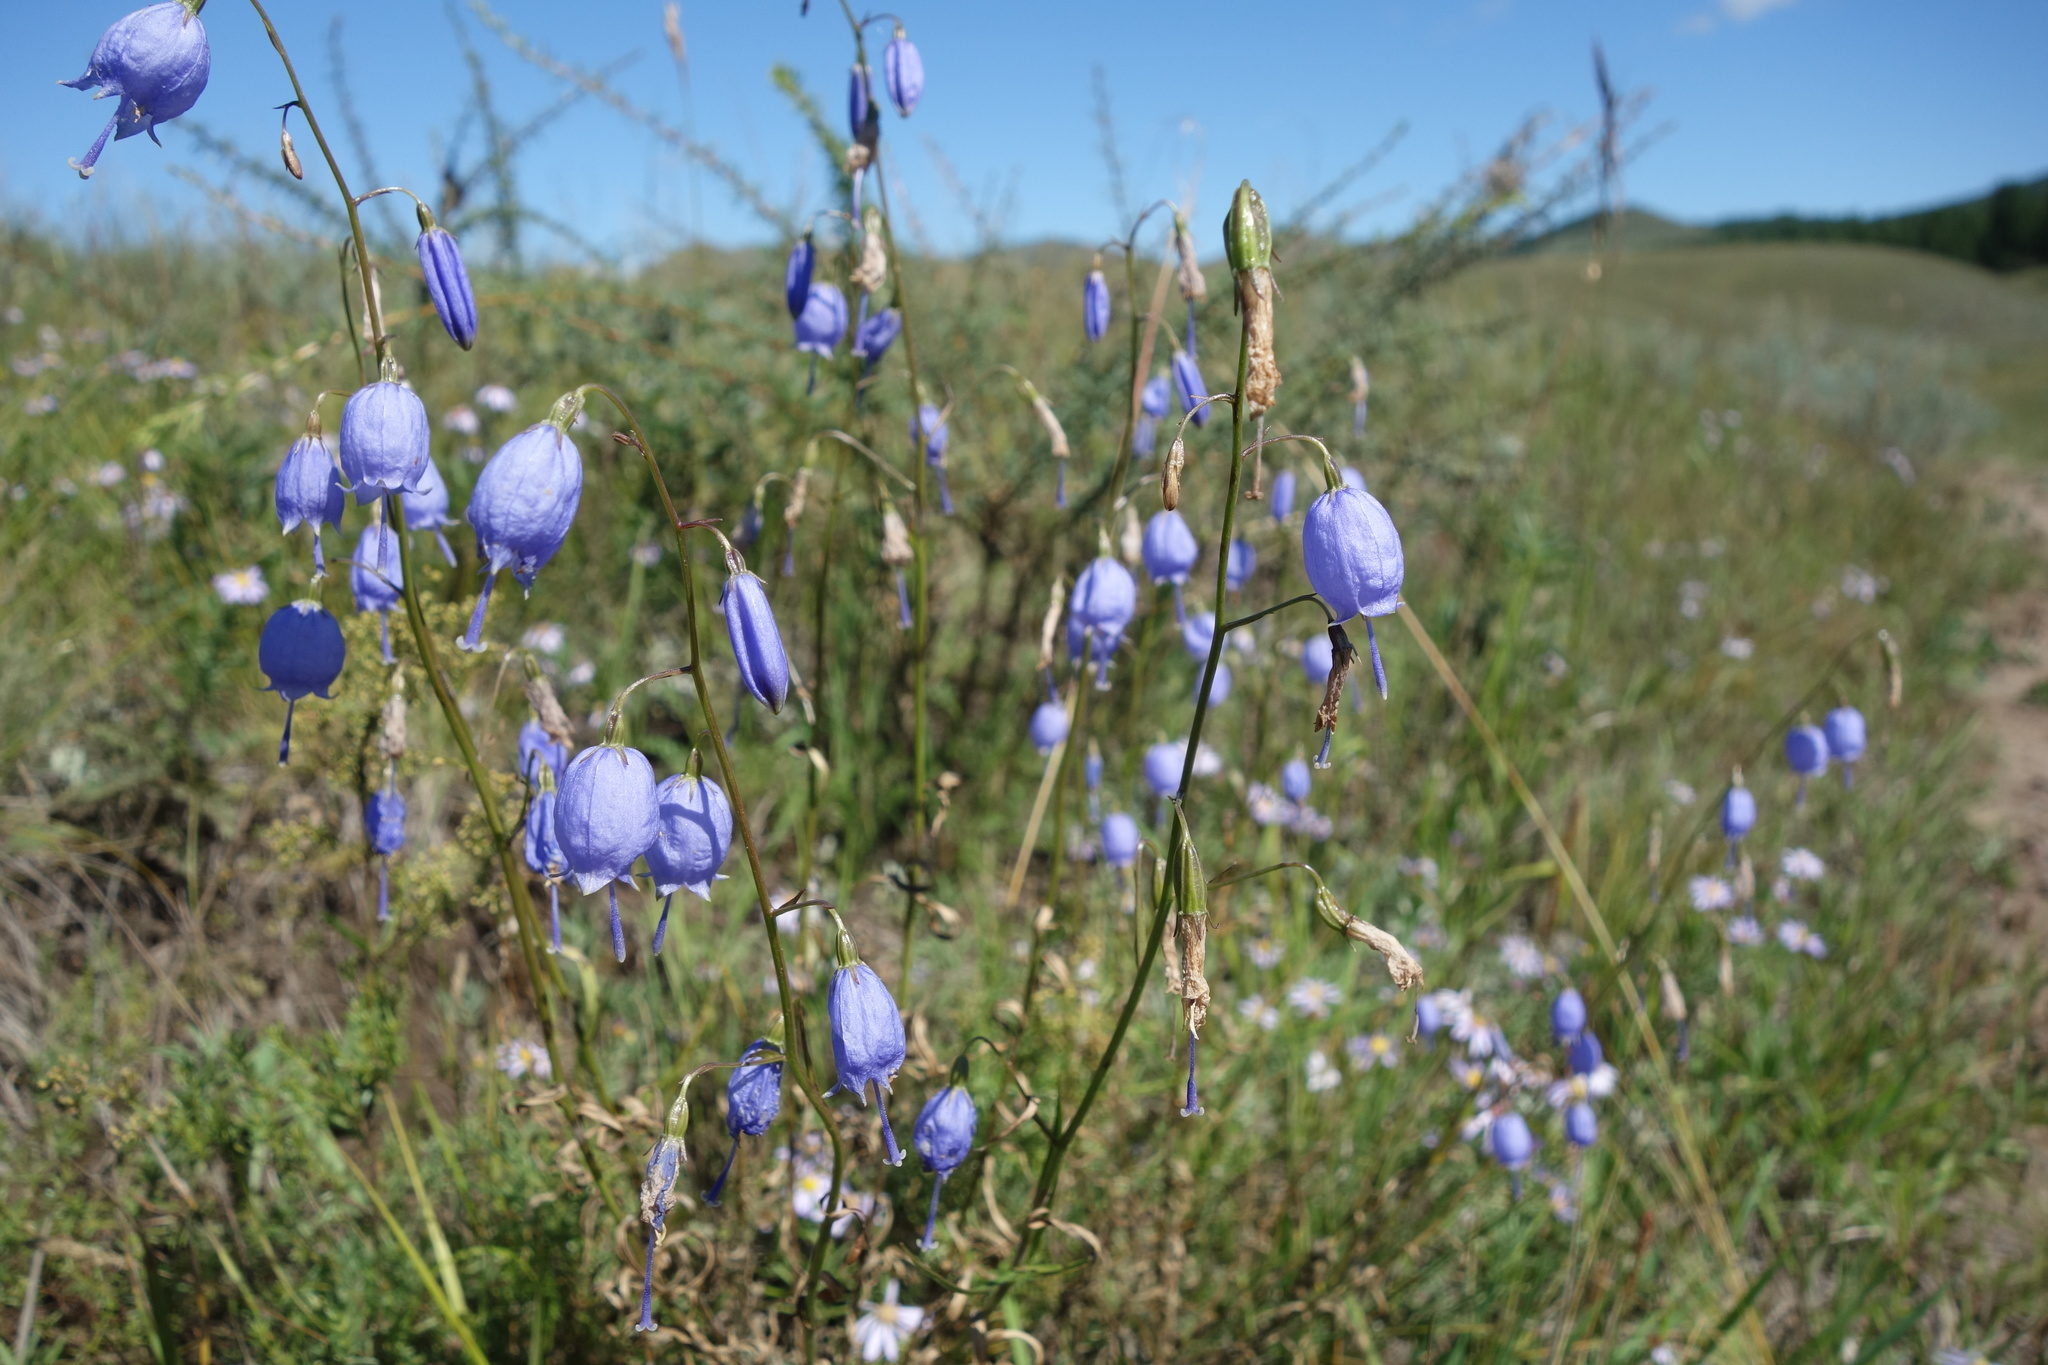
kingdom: Plantae
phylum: Tracheophyta
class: Magnoliopsida
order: Asterales
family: Campanulaceae
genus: Adenophora
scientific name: Adenophora stenanthina
